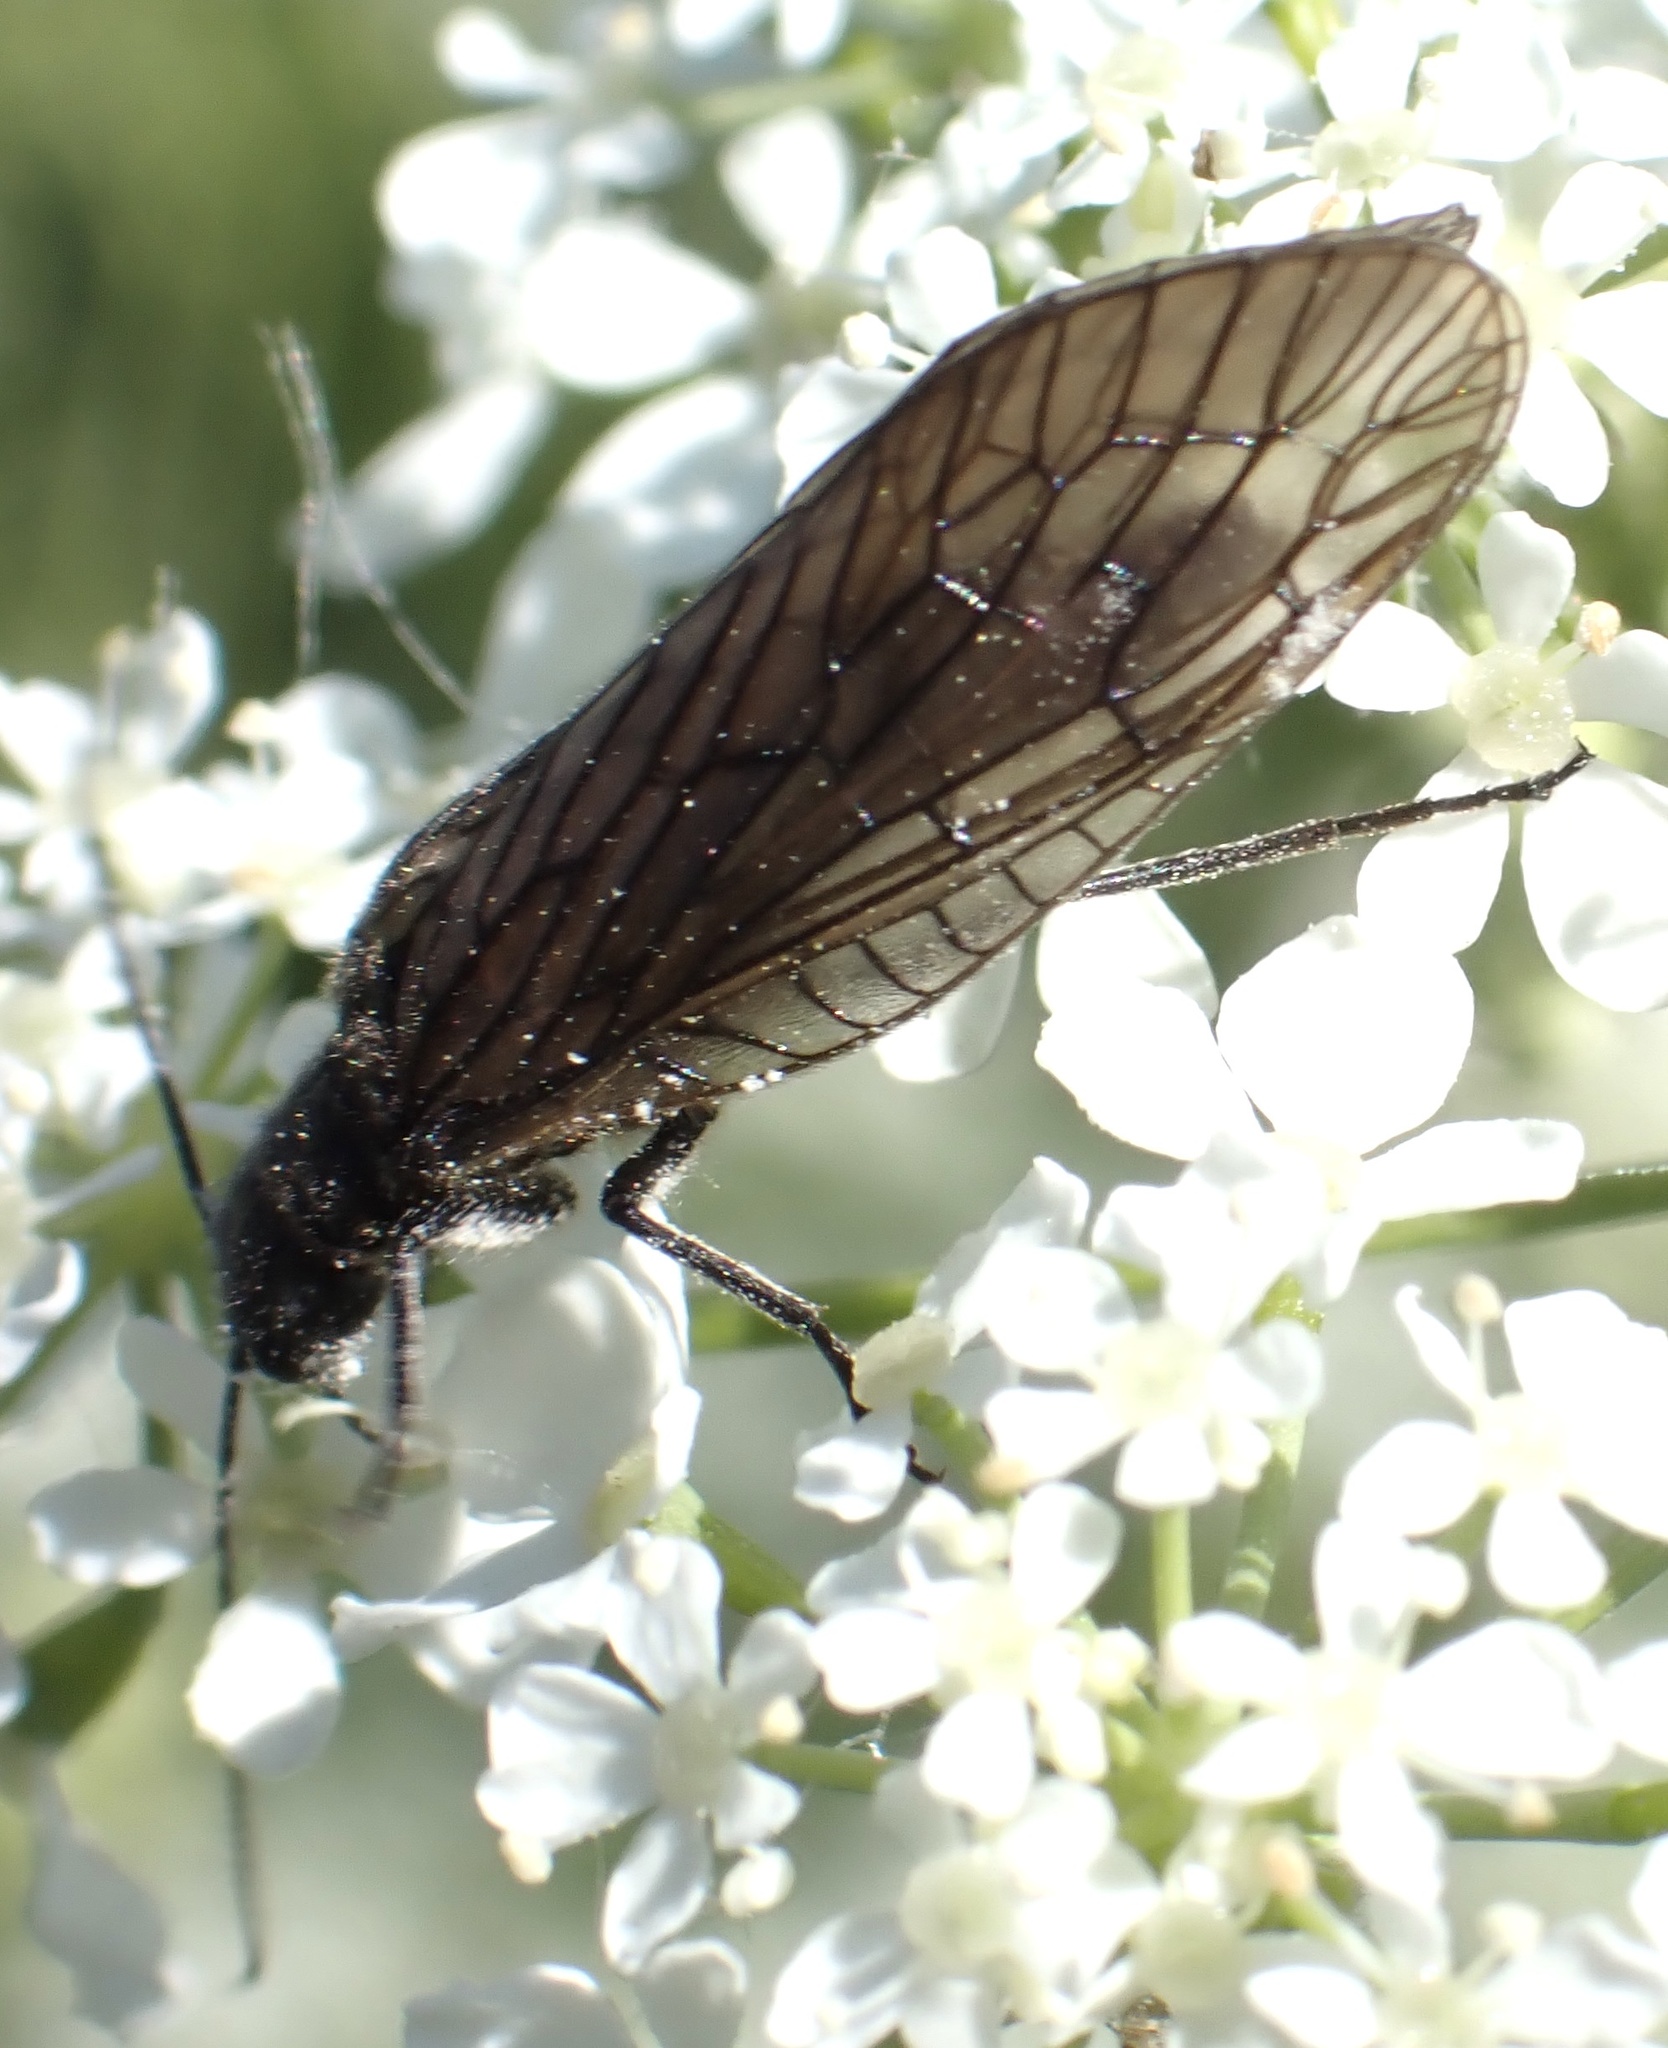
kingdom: Animalia
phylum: Arthropoda
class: Insecta
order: Megaloptera
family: Sialidae
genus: Sialis
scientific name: Sialis
